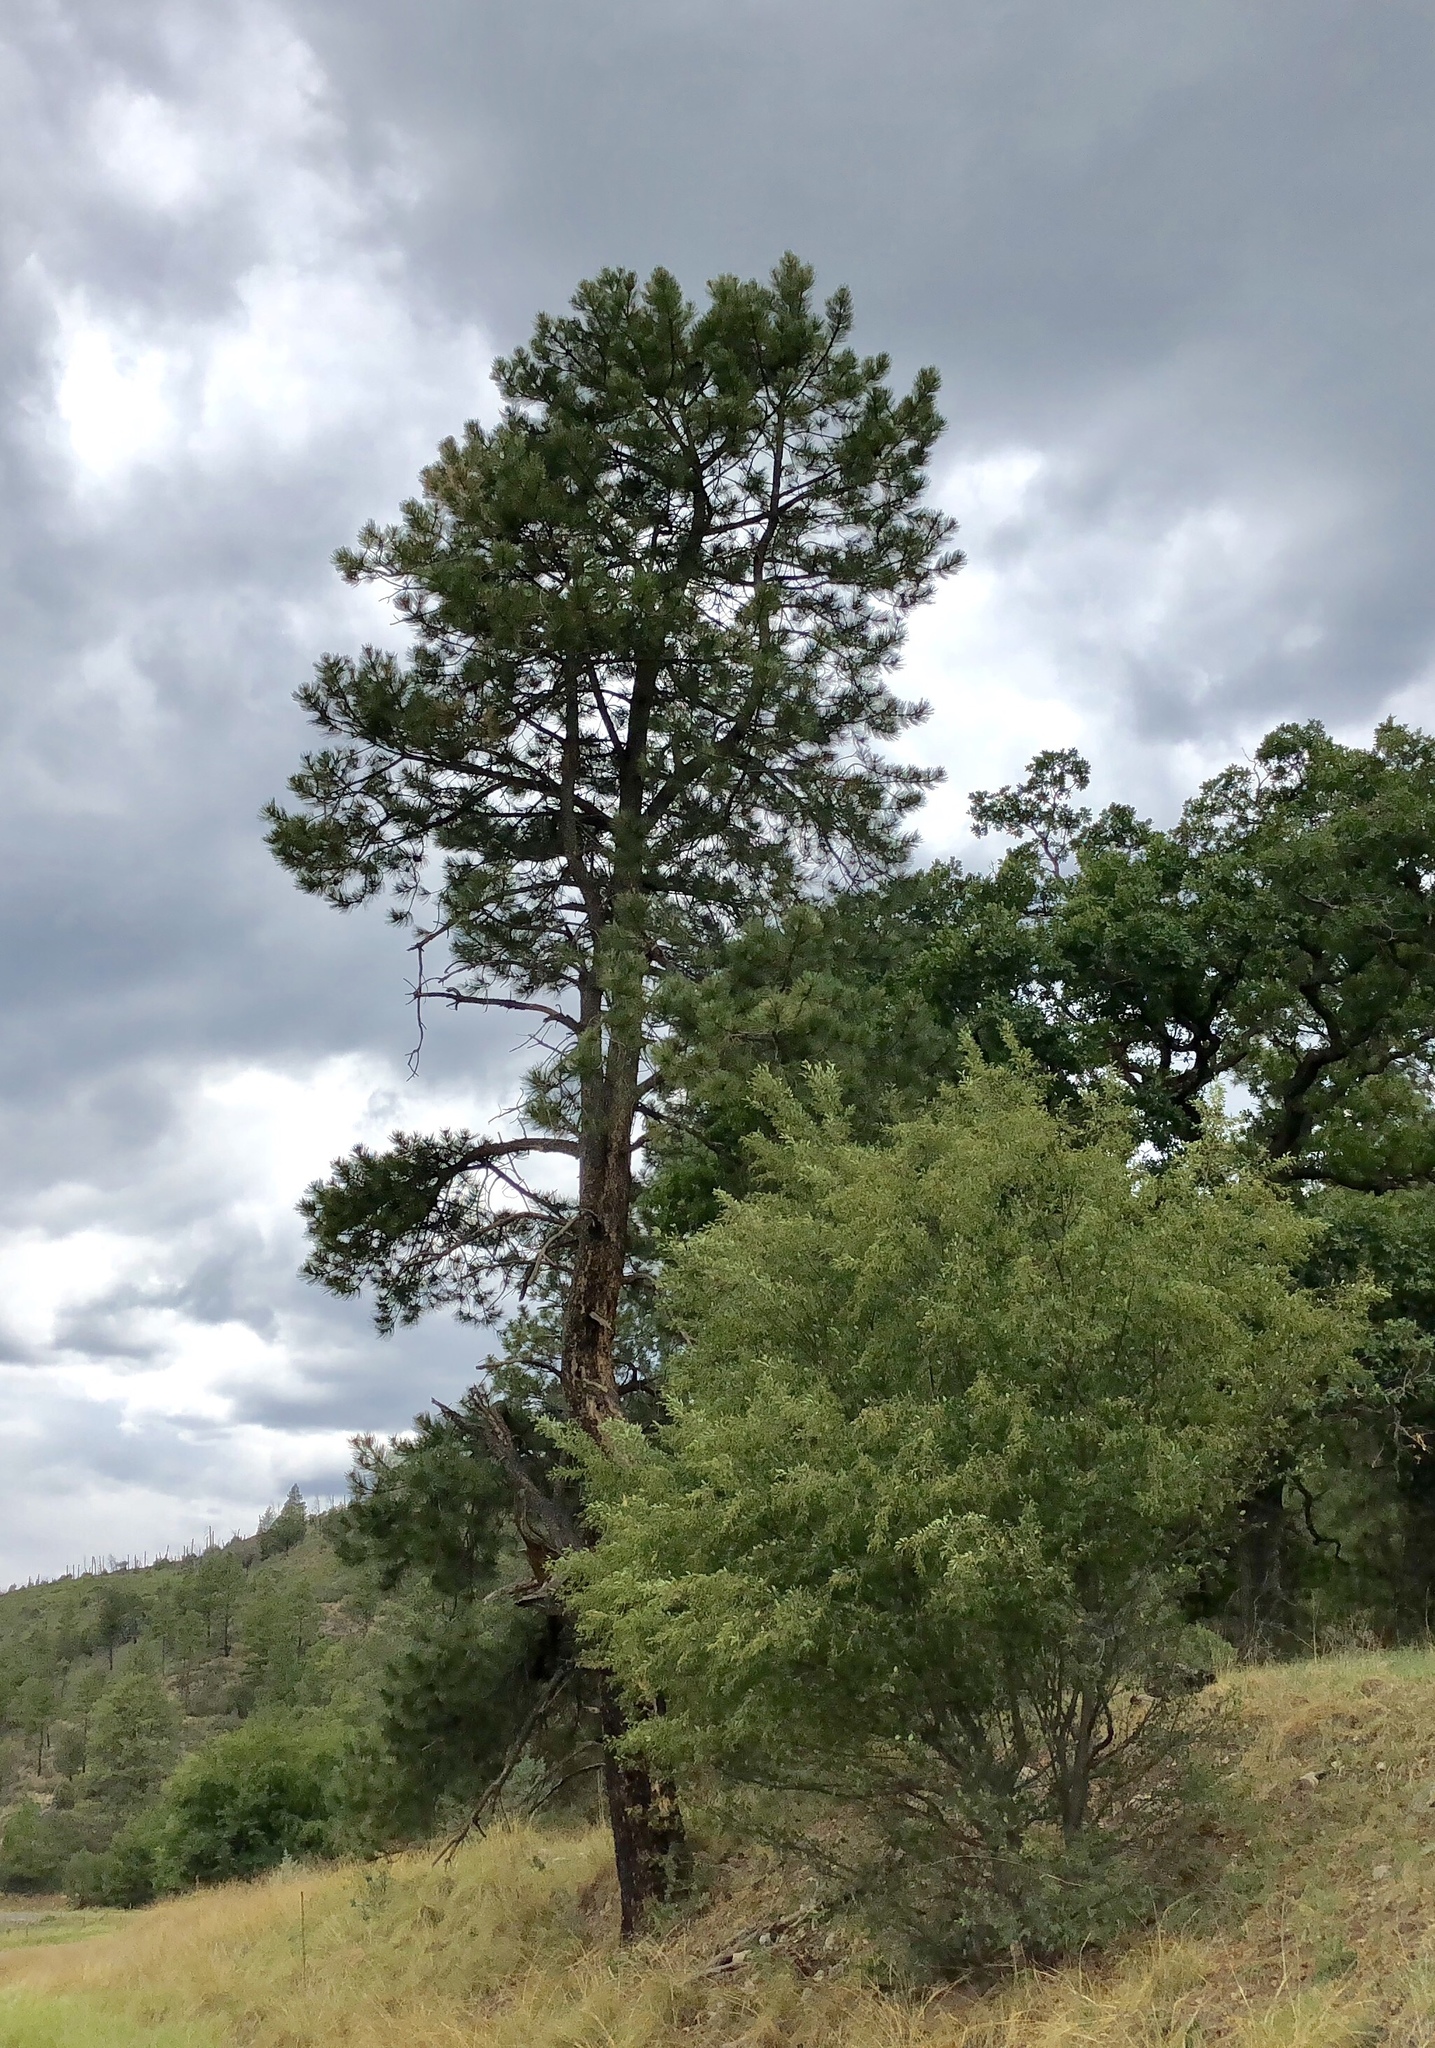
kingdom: Plantae
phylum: Tracheophyta
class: Pinopsida
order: Pinales
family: Pinaceae
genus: Pinus
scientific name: Pinus ponderosa
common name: Western yellow-pine
